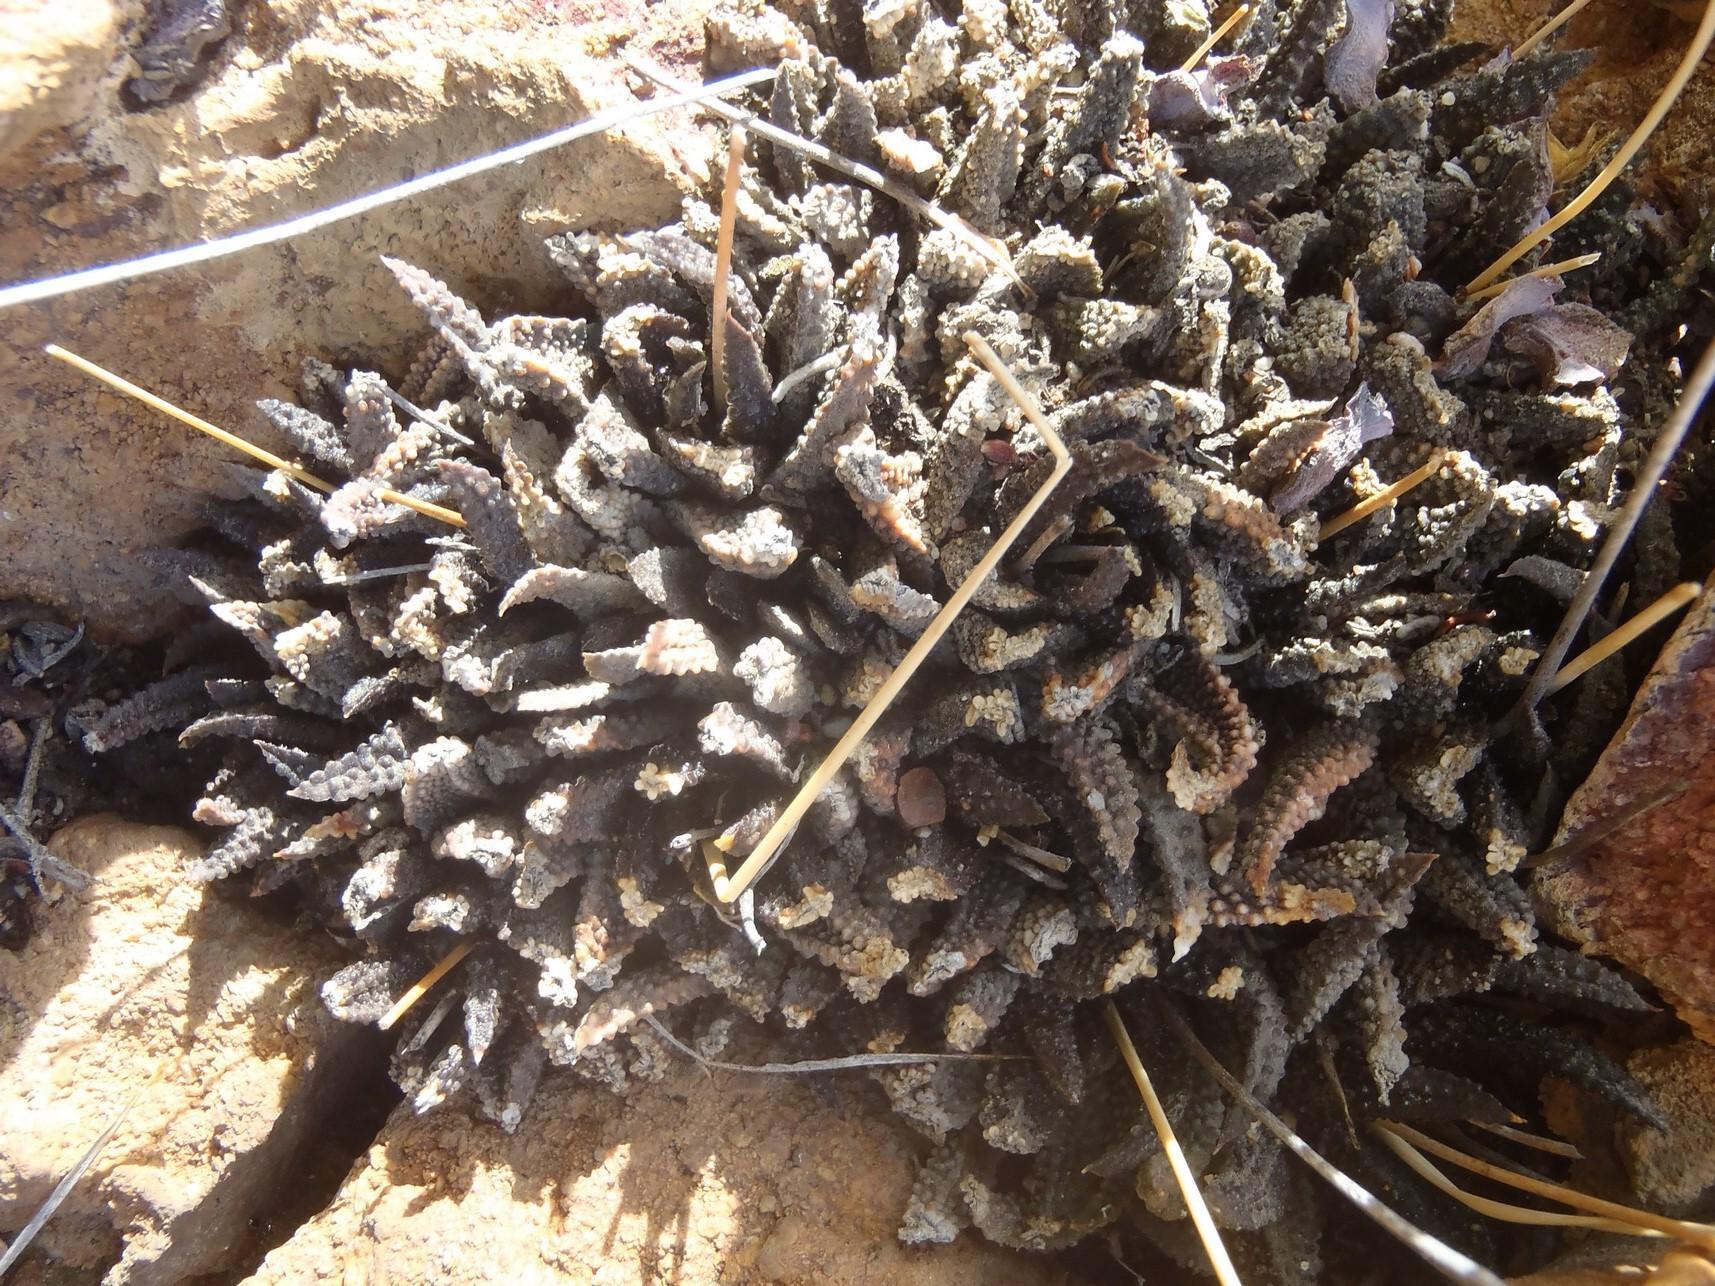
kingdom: Plantae
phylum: Tracheophyta
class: Liliopsida
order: Asparagales
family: Asphodelaceae
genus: Haworthiopsis
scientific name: Haworthiopsis scabra
